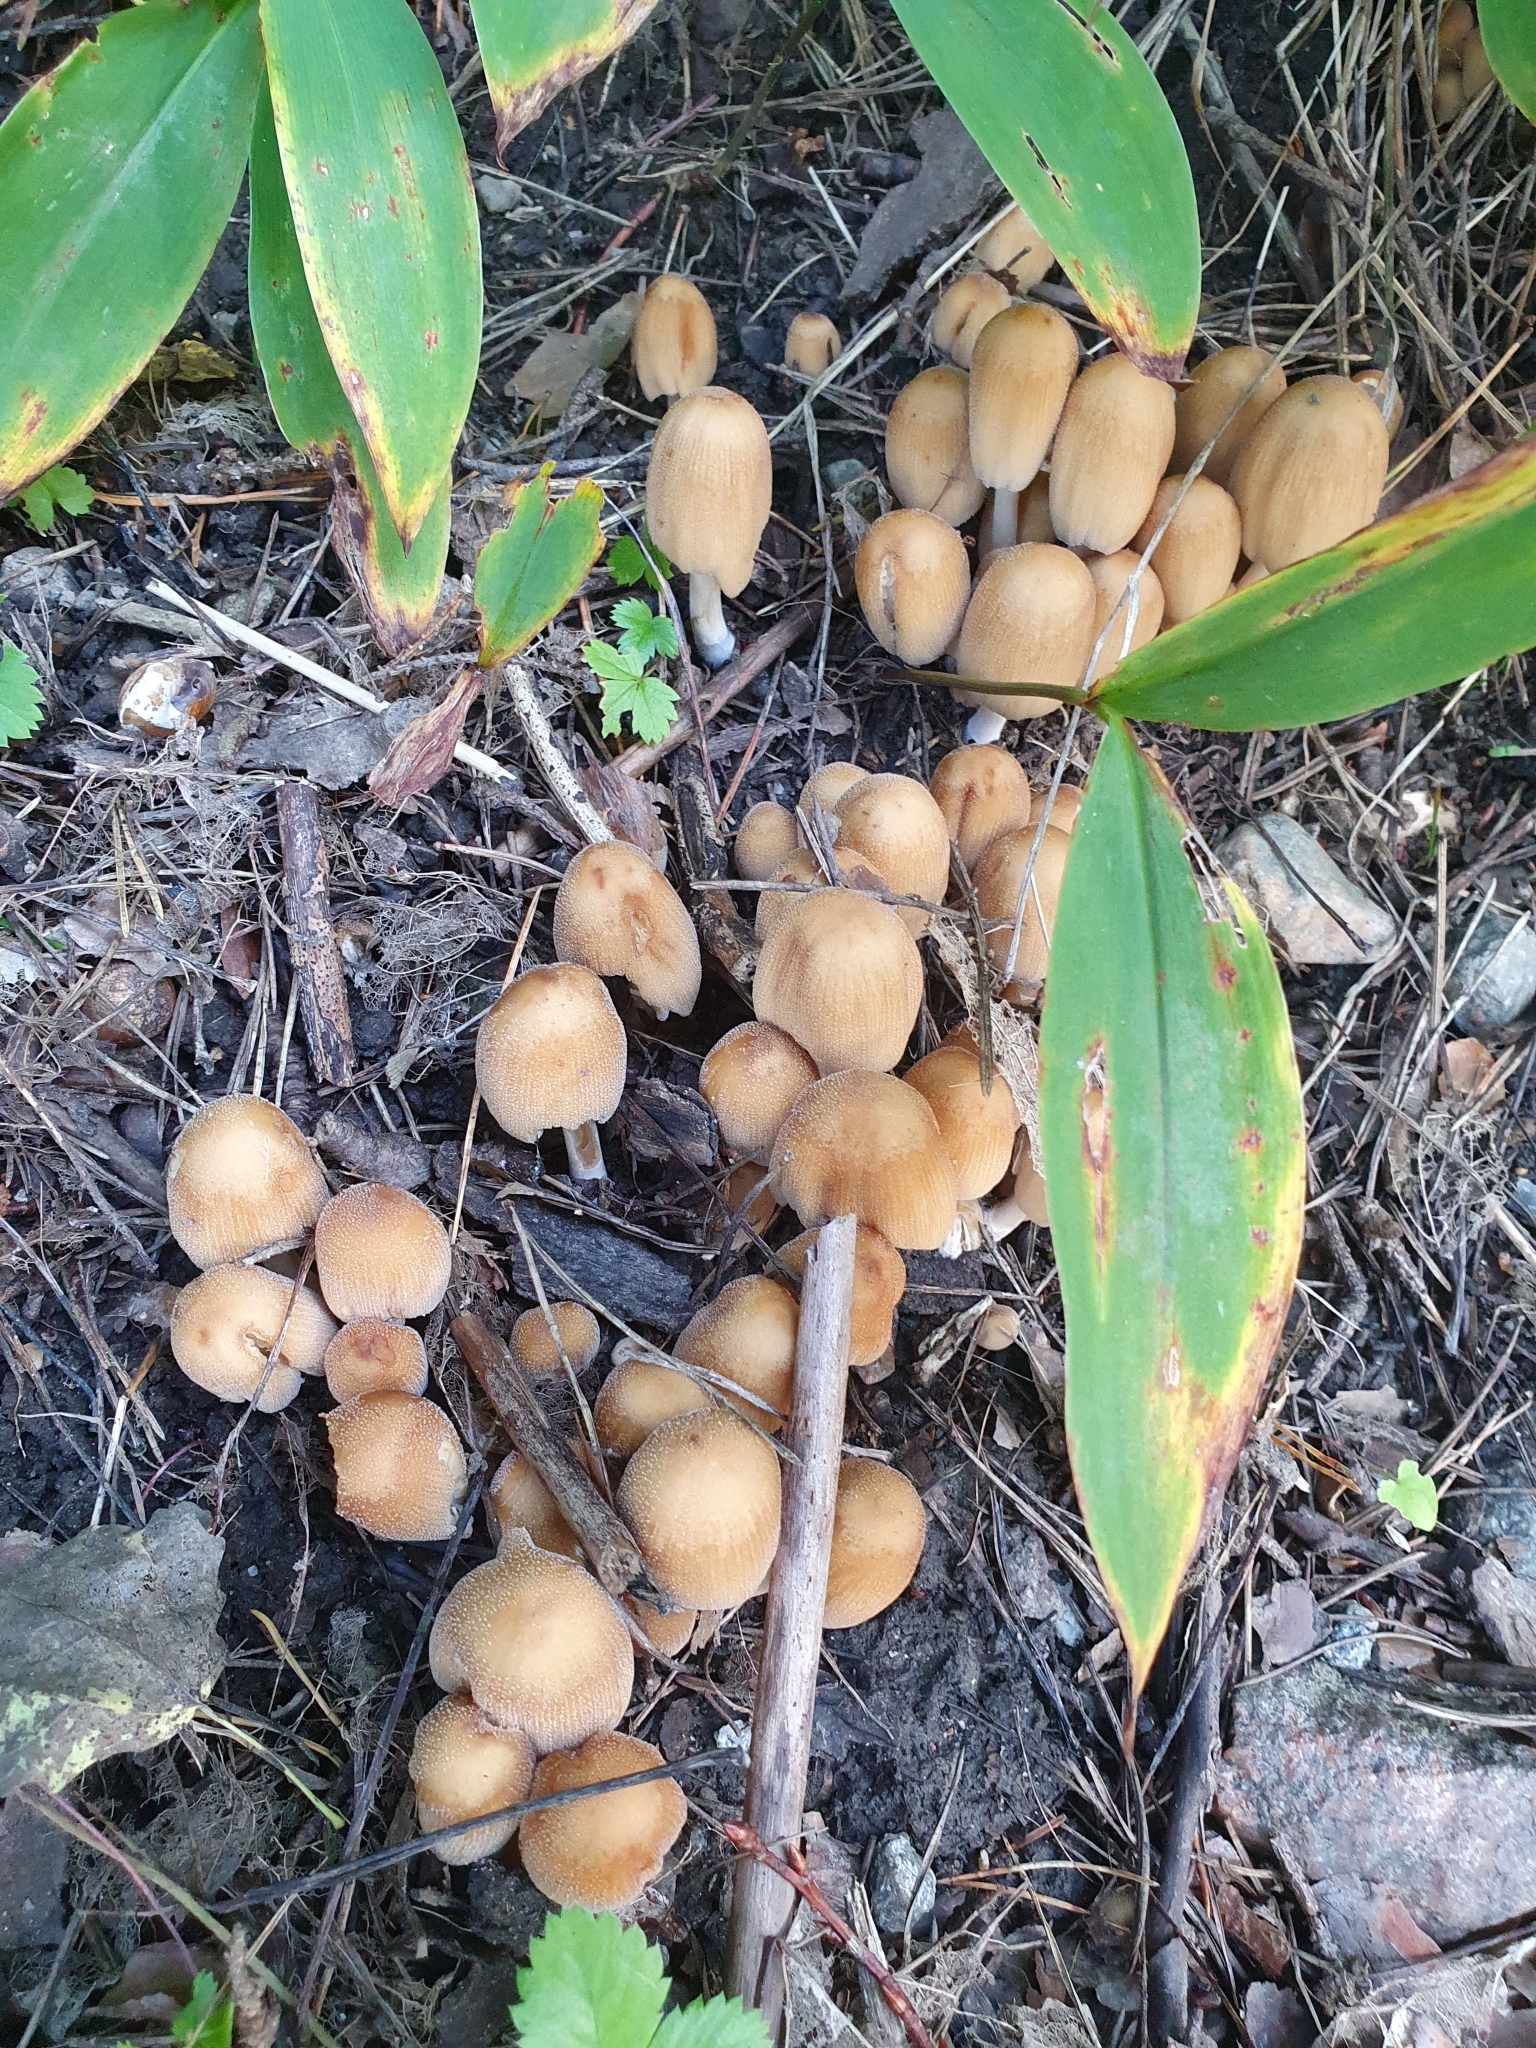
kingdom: Fungi
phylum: Basidiomycota
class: Agaricomycetes
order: Agaricales
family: Psathyrellaceae
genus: Coprinellus
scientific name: Coprinellus micaceus
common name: Glistening ink-cap
